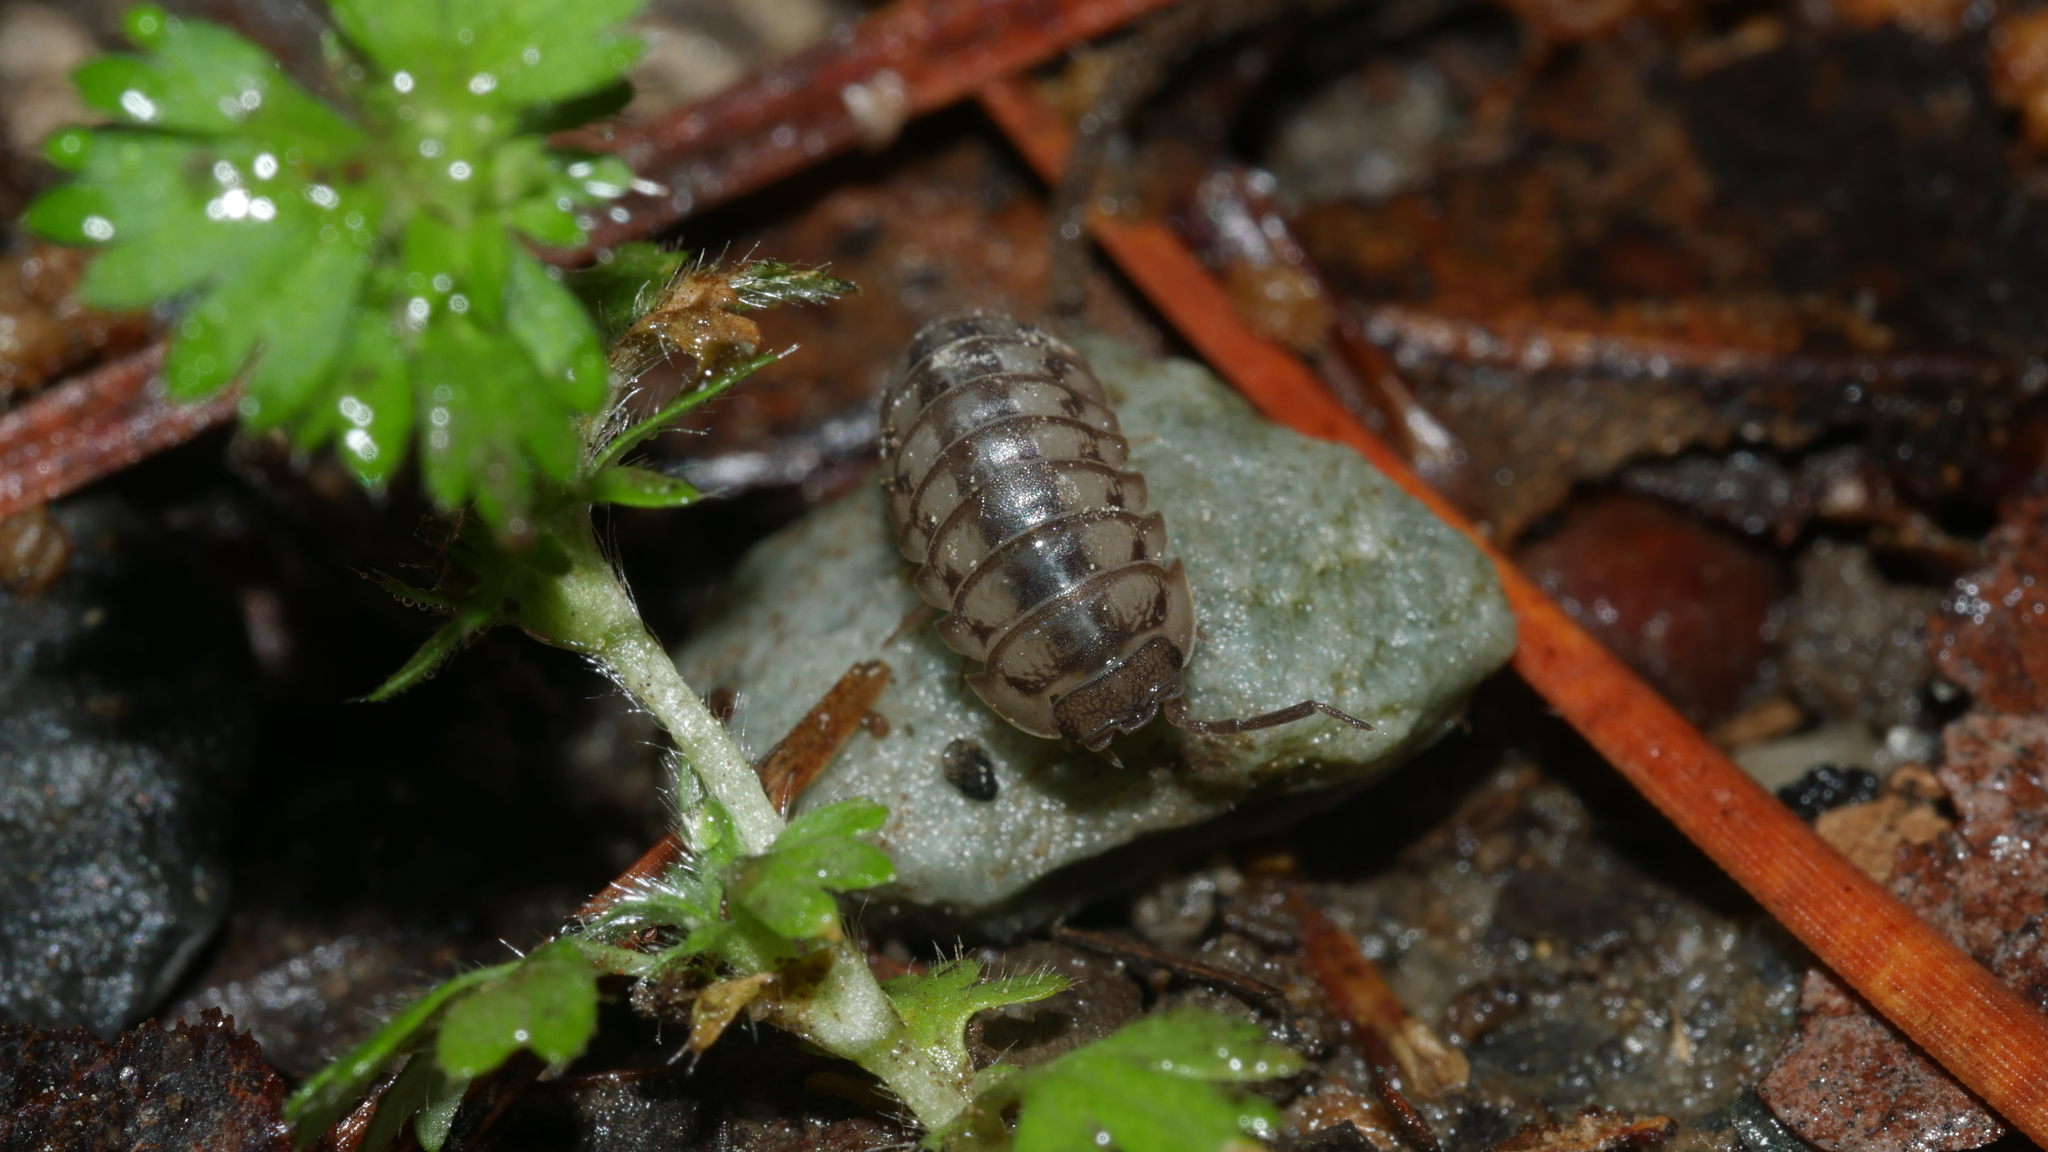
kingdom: Animalia
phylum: Arthropoda
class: Malacostraca
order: Isopoda
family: Armadillidiidae
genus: Armadillidium
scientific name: Armadillidium nasatum
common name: Isopod
